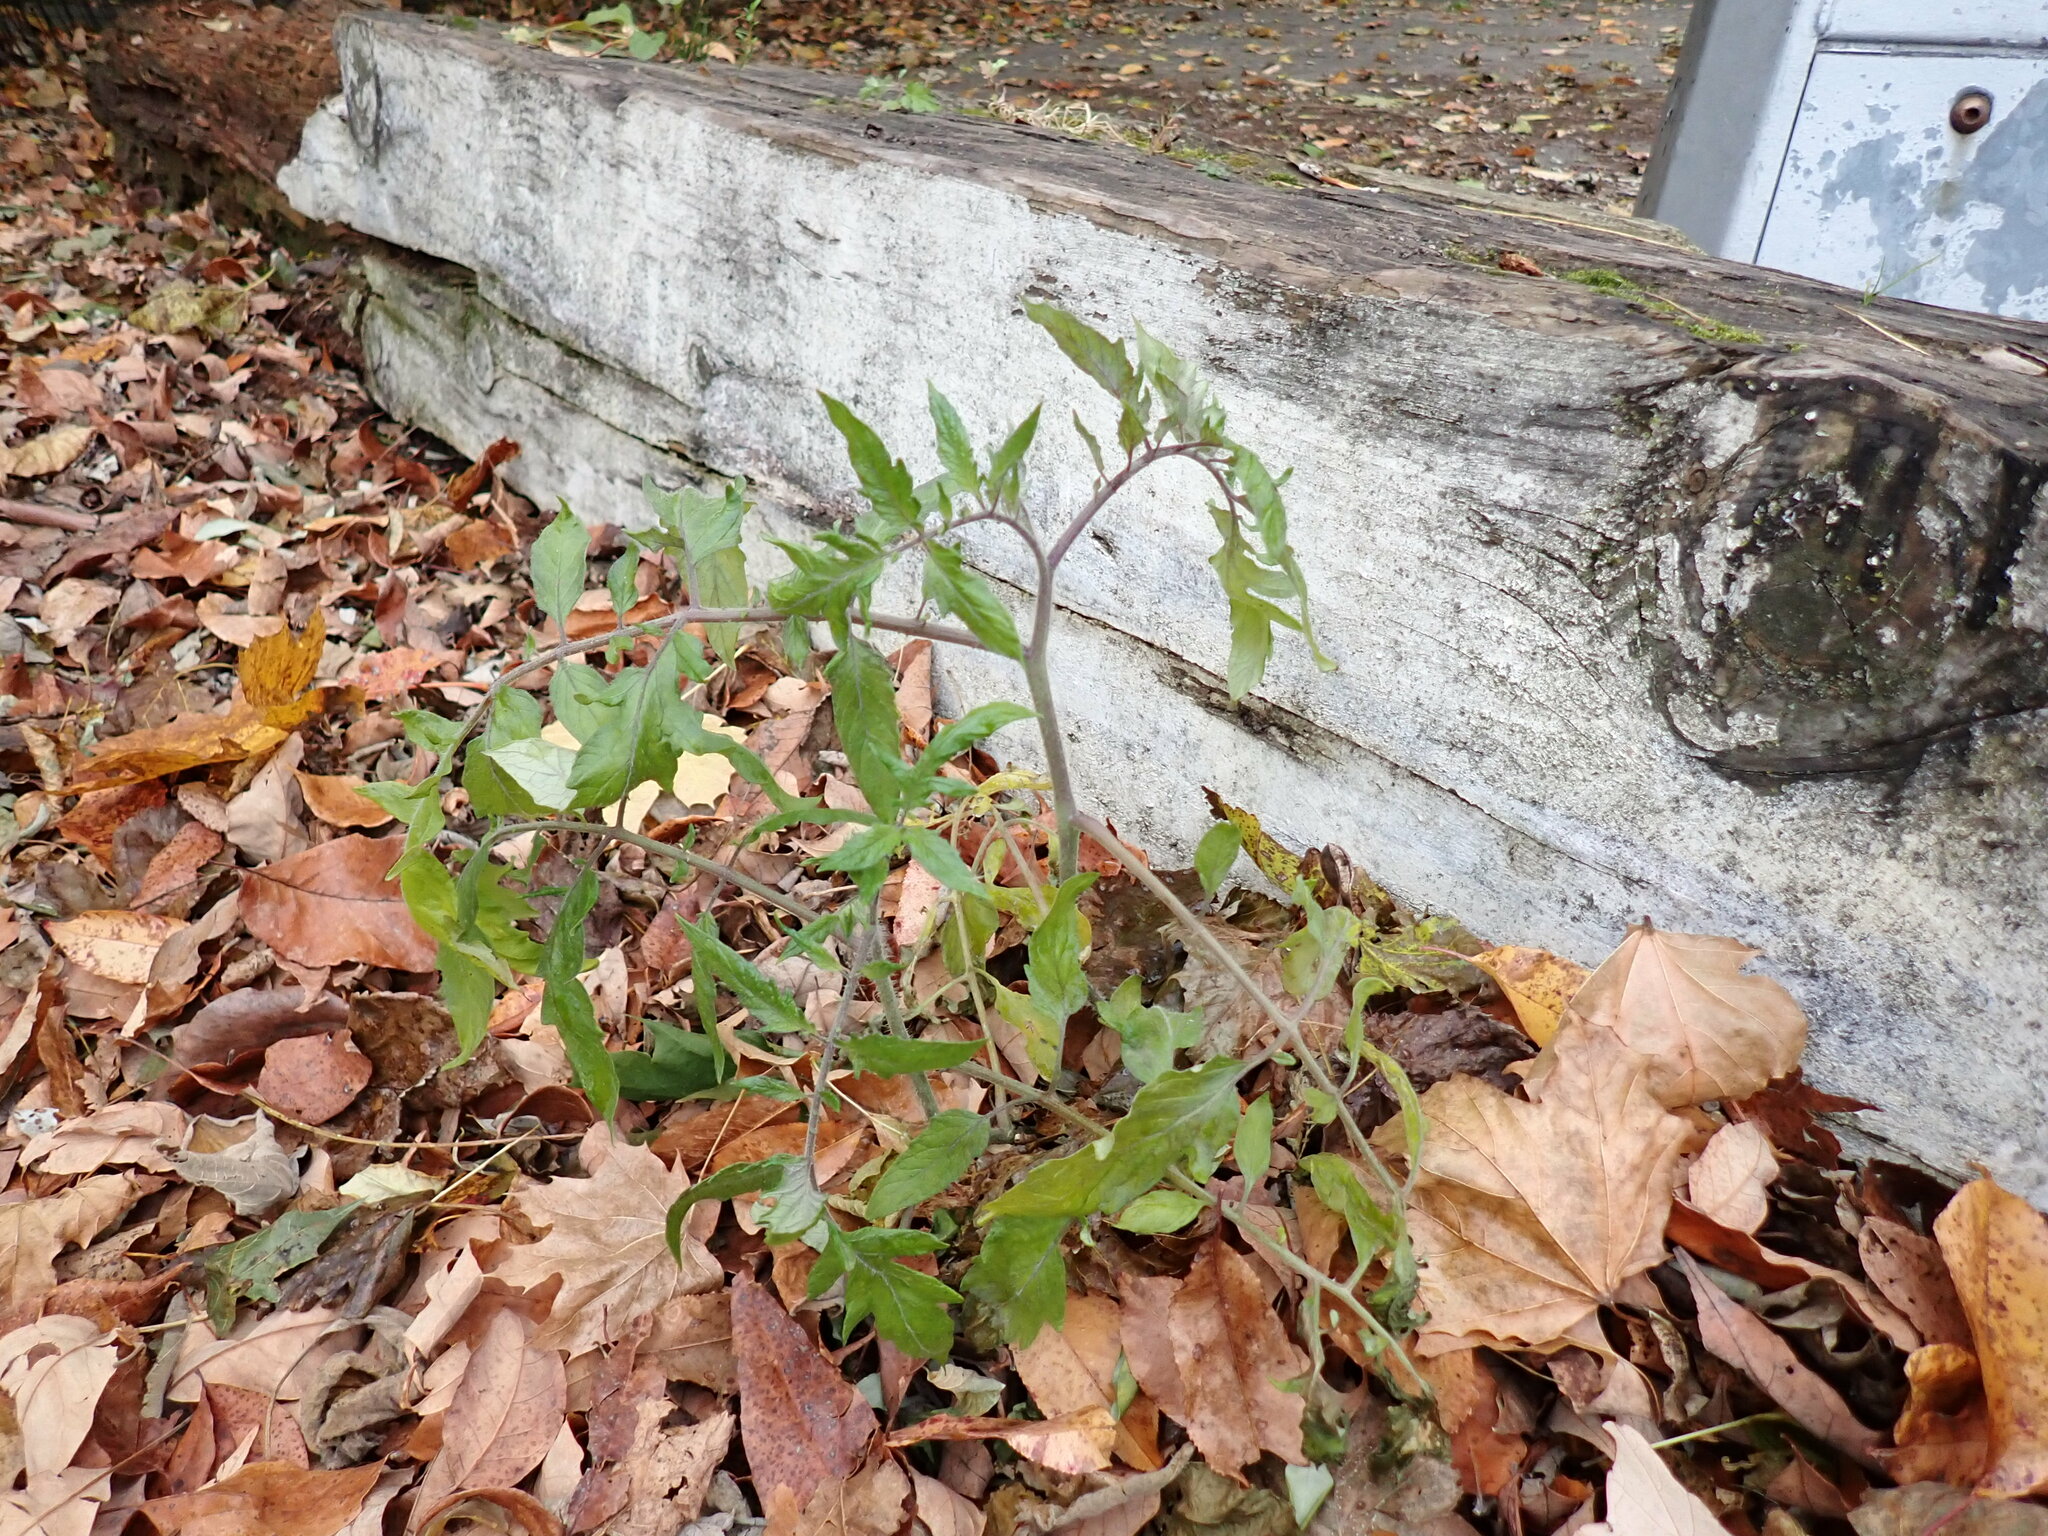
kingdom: Plantae
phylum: Tracheophyta
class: Magnoliopsida
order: Solanales
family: Solanaceae
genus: Solanum
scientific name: Solanum lycopersicum
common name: Garden tomato
